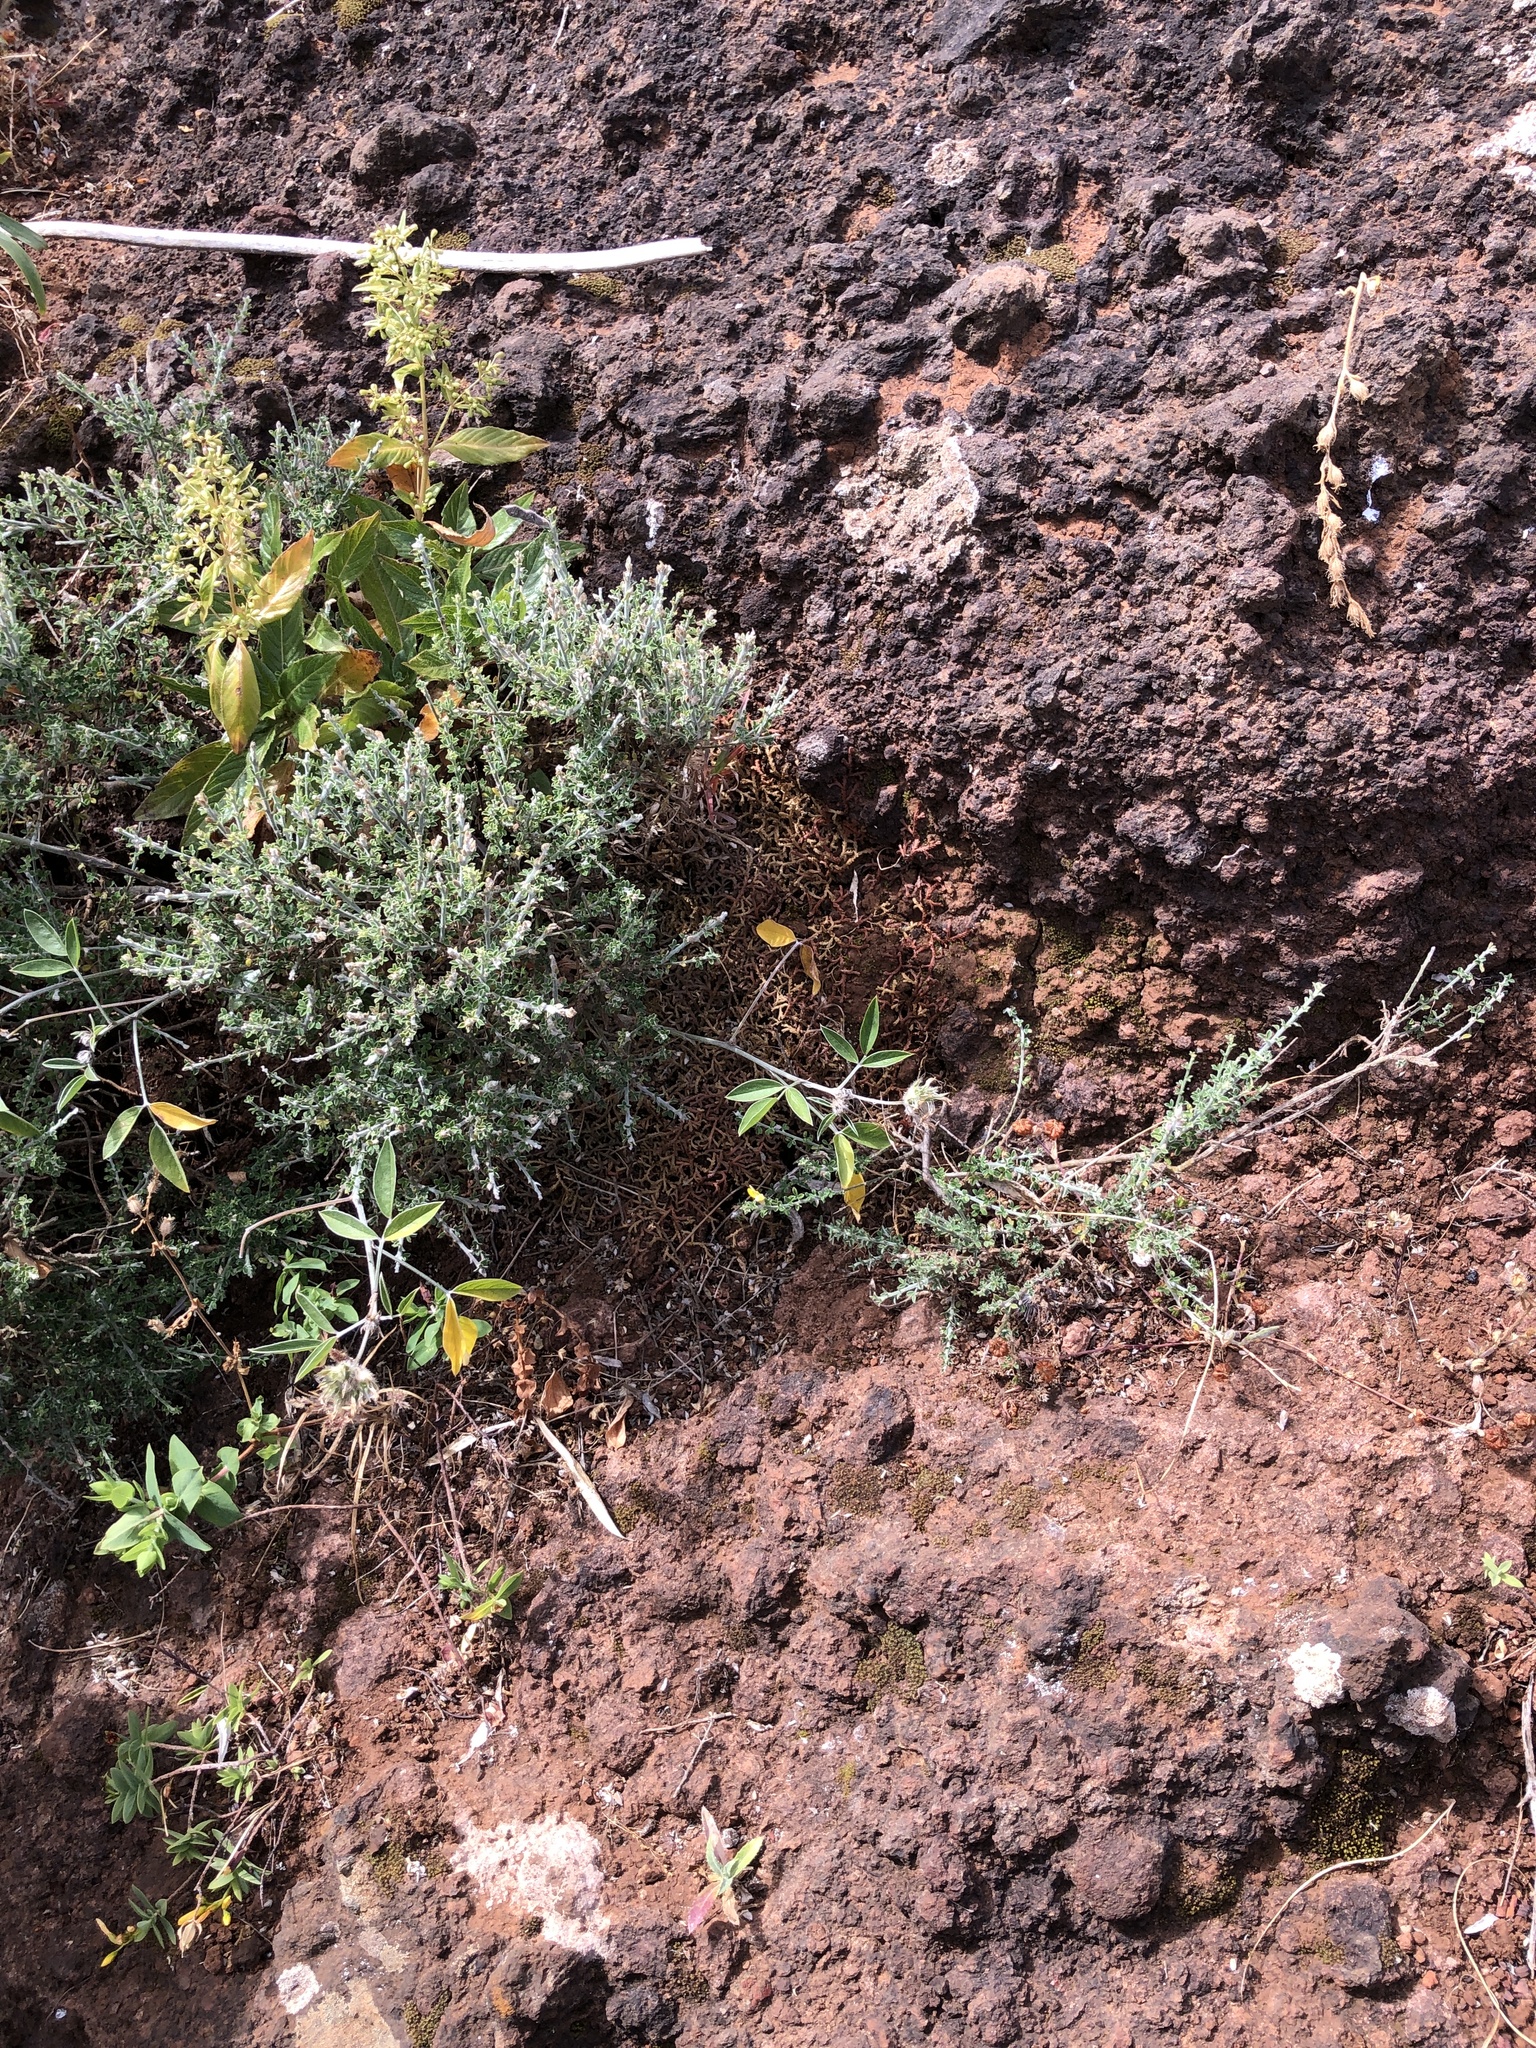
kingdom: Plantae
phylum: Tracheophyta
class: Lycopodiopsida
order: Selaginellales
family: Selaginellaceae
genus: Selaginella
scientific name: Selaginella denticulata
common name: Toothed-leaved clubmoss
